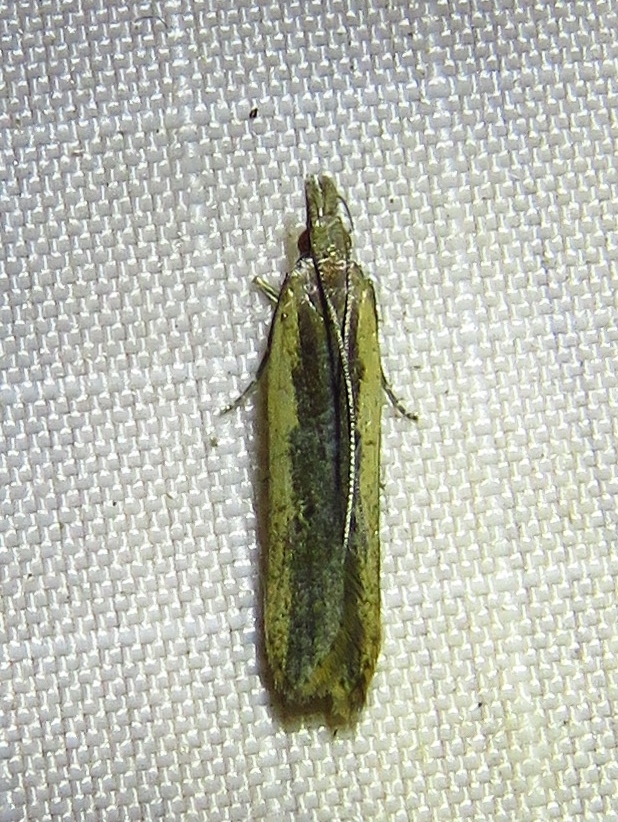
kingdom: Animalia
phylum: Arthropoda
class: Insecta
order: Lepidoptera
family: Gelechiidae
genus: Dichomeris
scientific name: Dichomeris ligulella
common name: Moth
